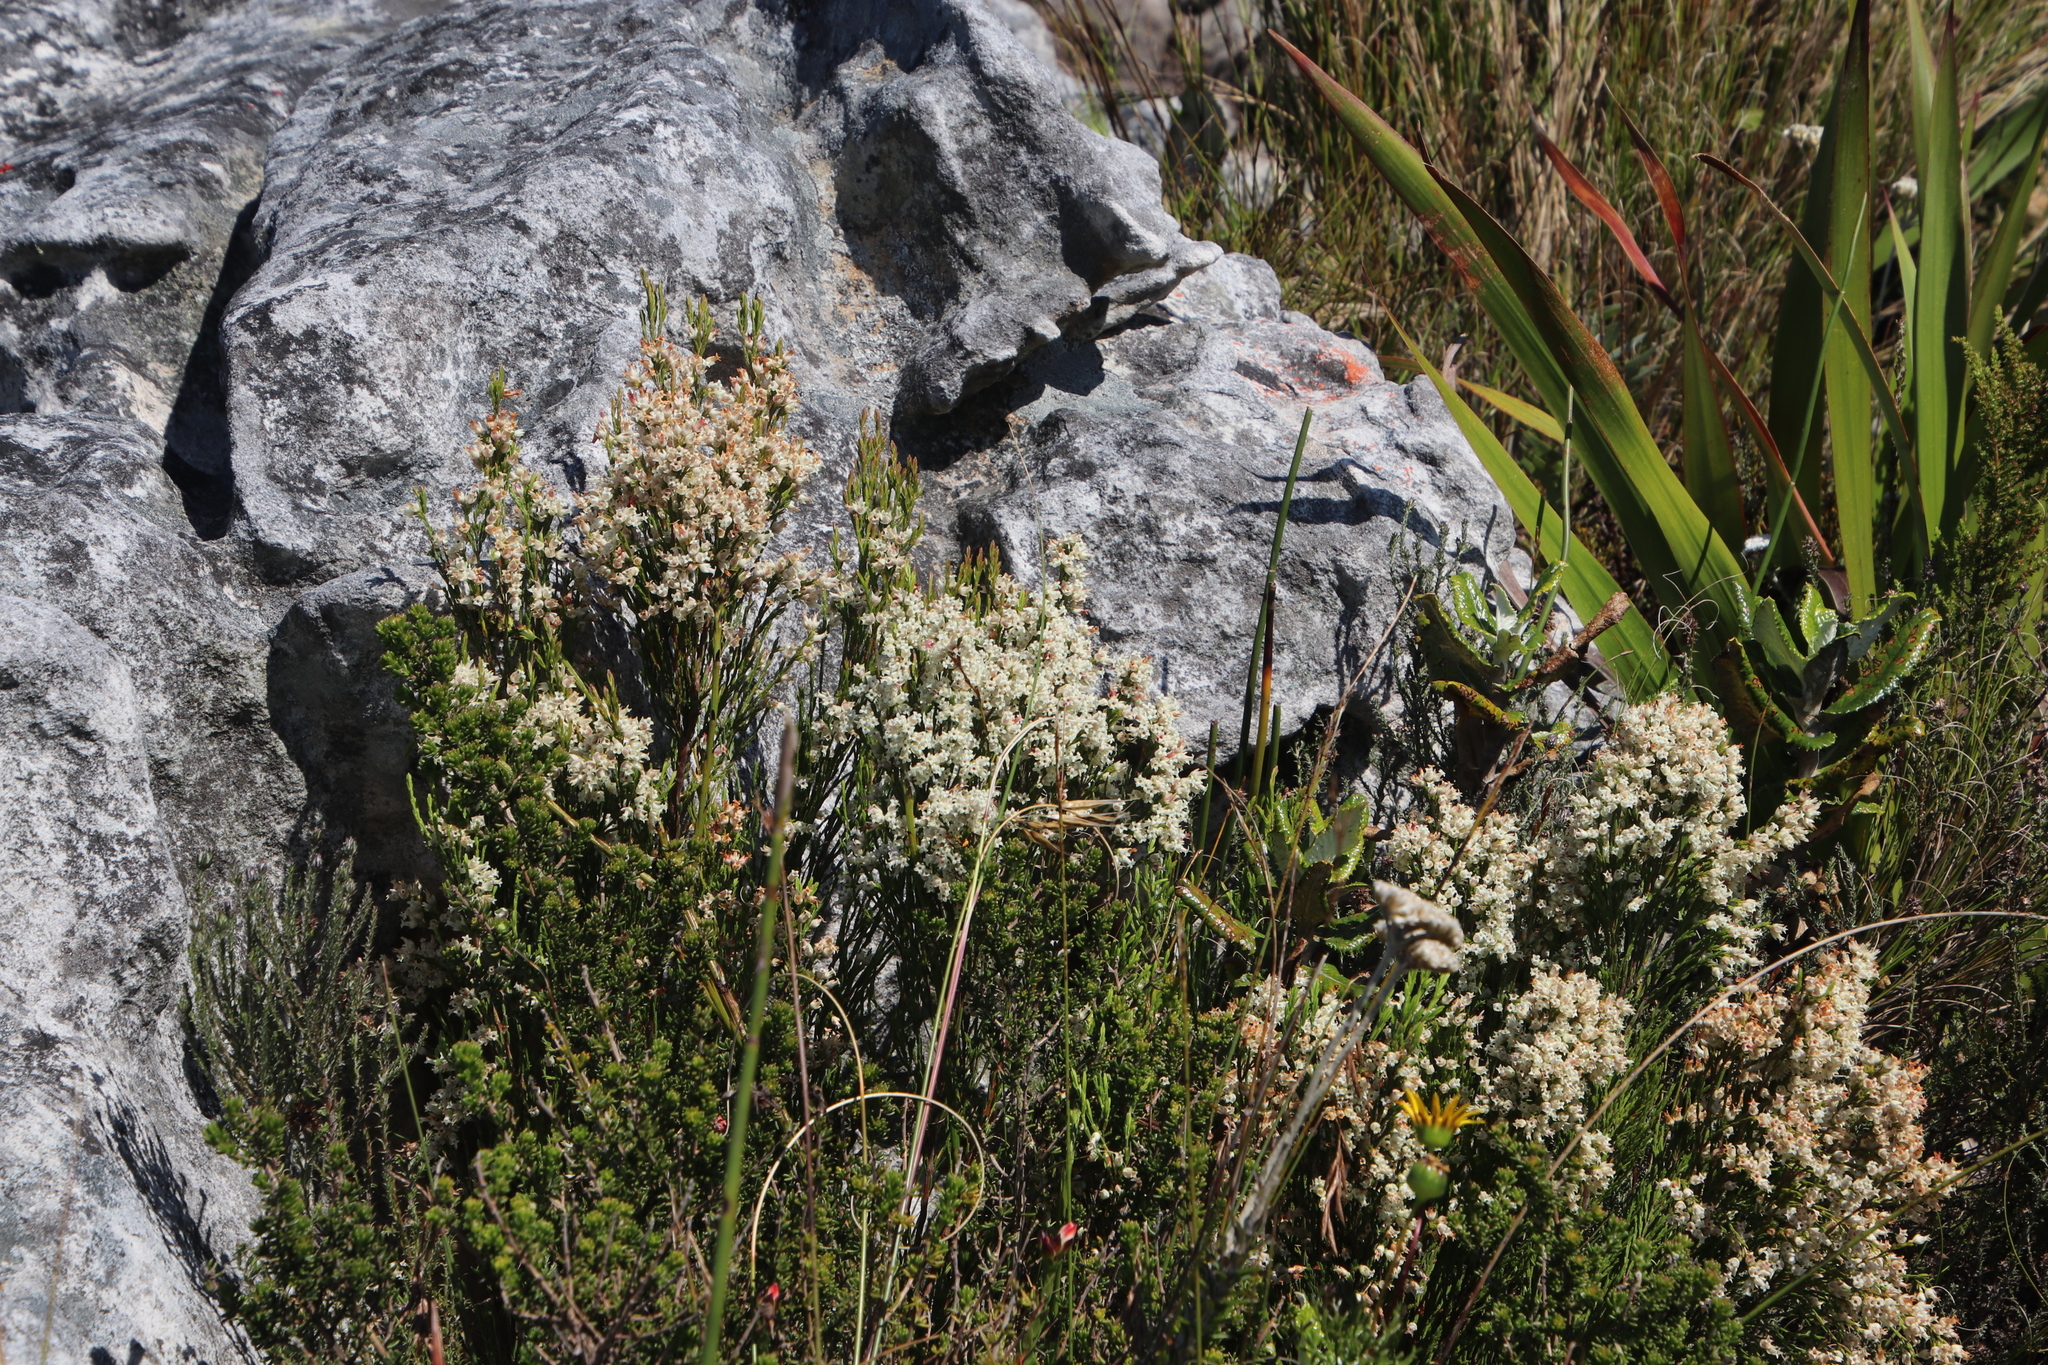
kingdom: Plantae
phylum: Tracheophyta
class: Magnoliopsida
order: Ericales
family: Ericaceae
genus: Erica
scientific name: Erica lutea
